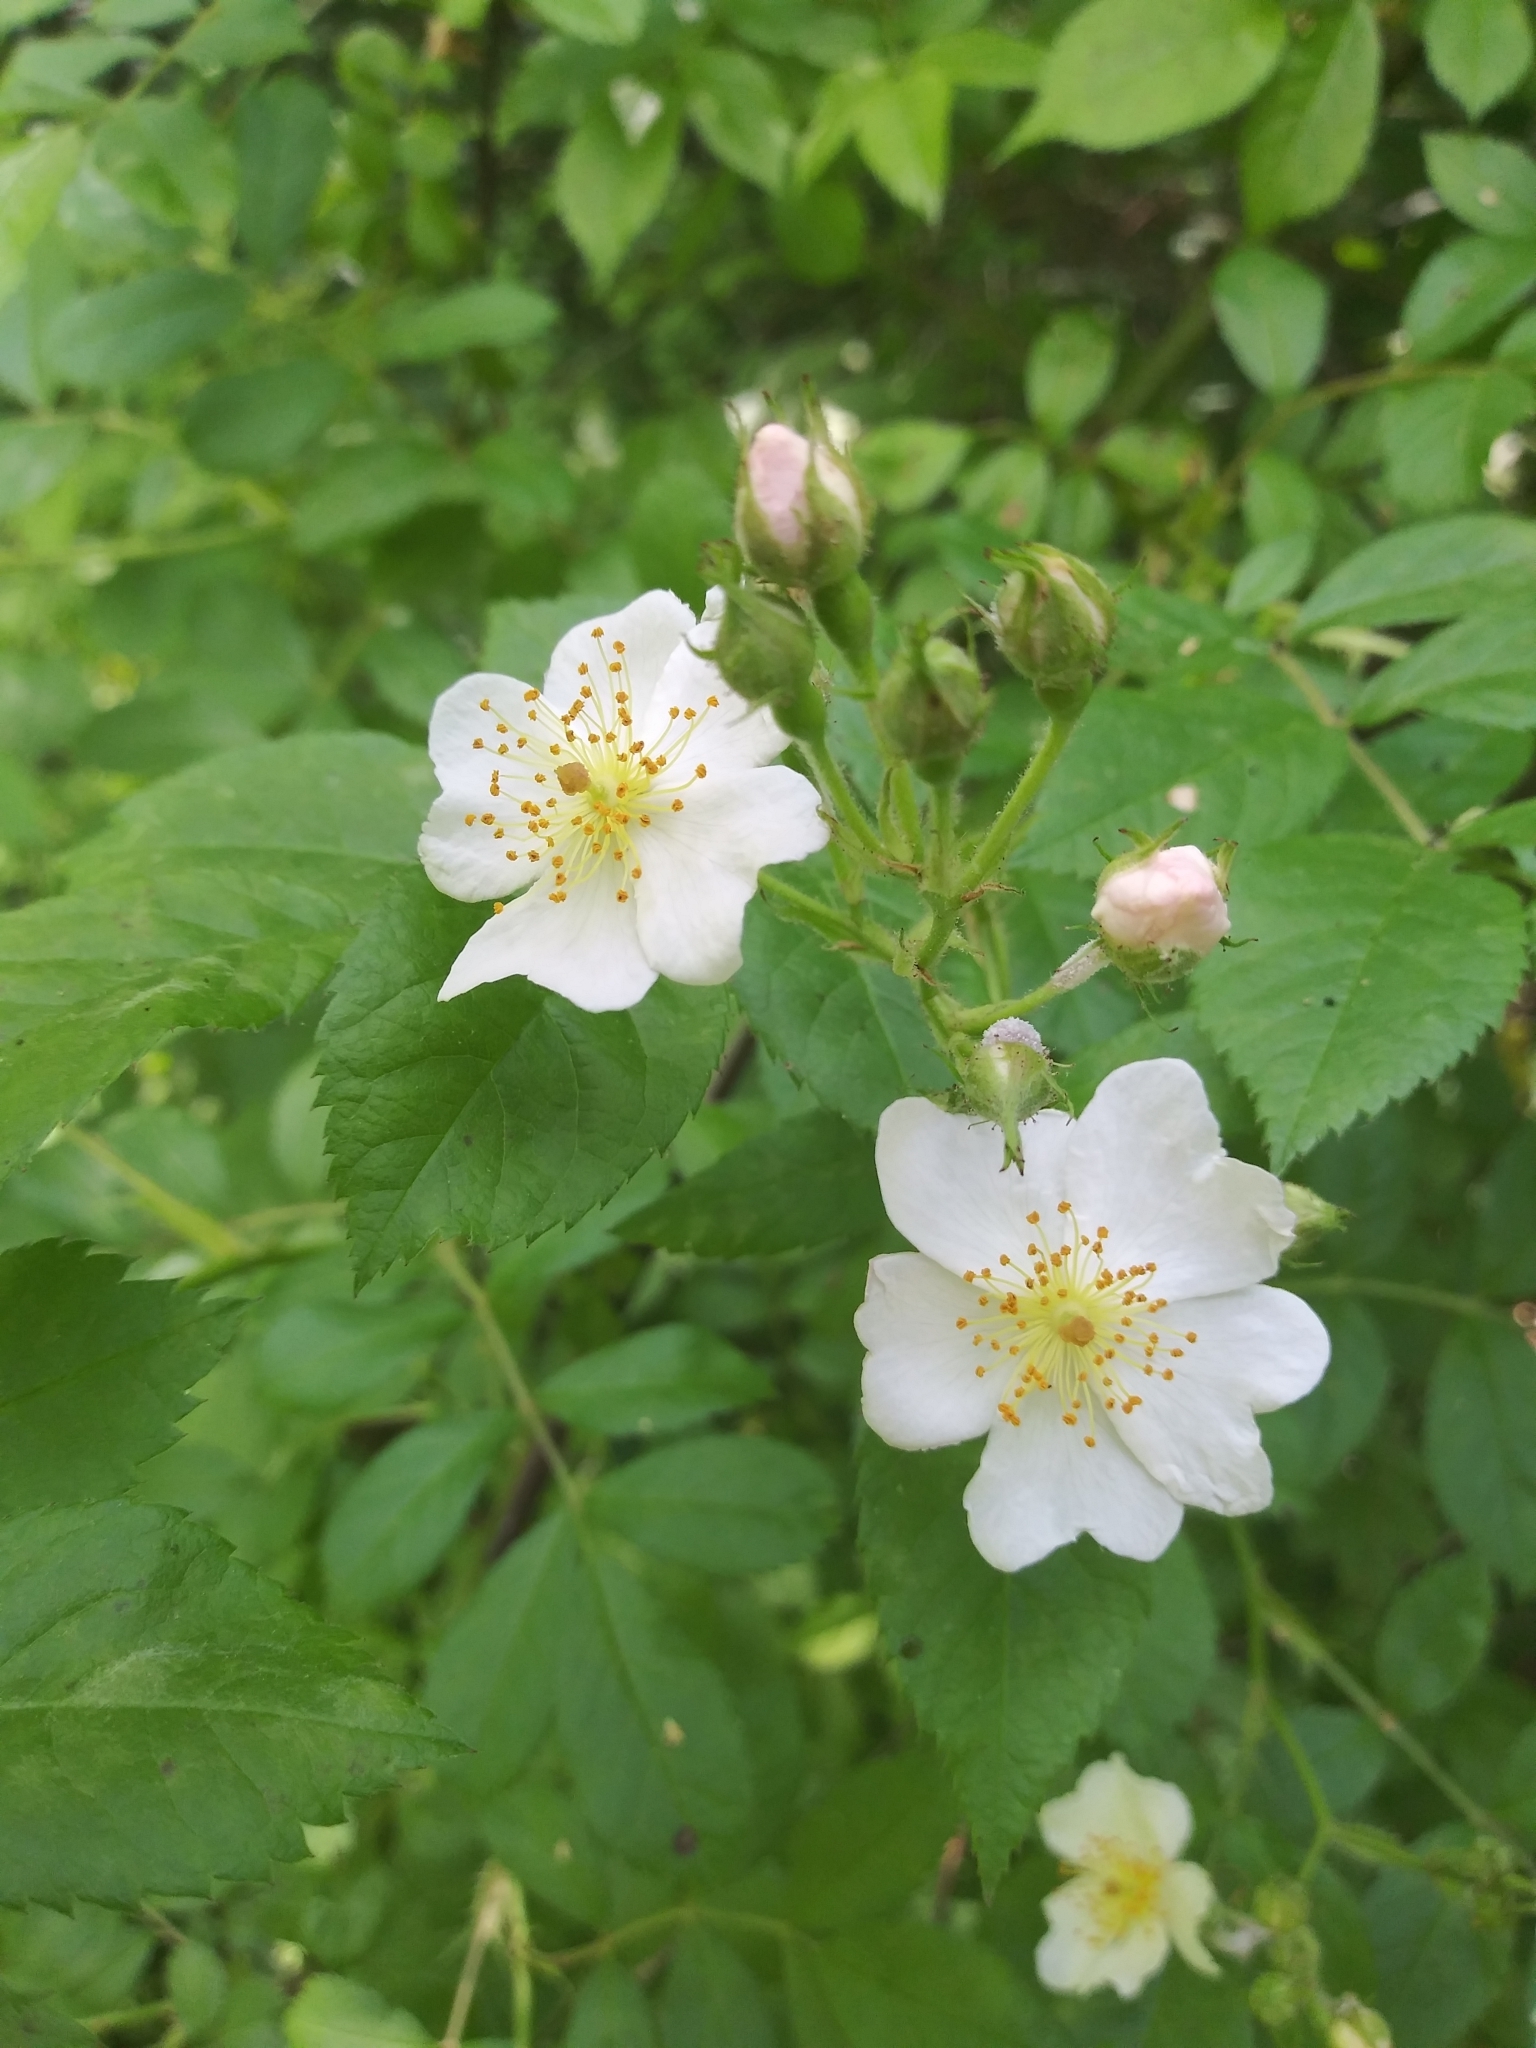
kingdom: Plantae
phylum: Tracheophyta
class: Magnoliopsida
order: Rosales
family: Rosaceae
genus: Rosa
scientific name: Rosa multiflora
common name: Multiflora rose
